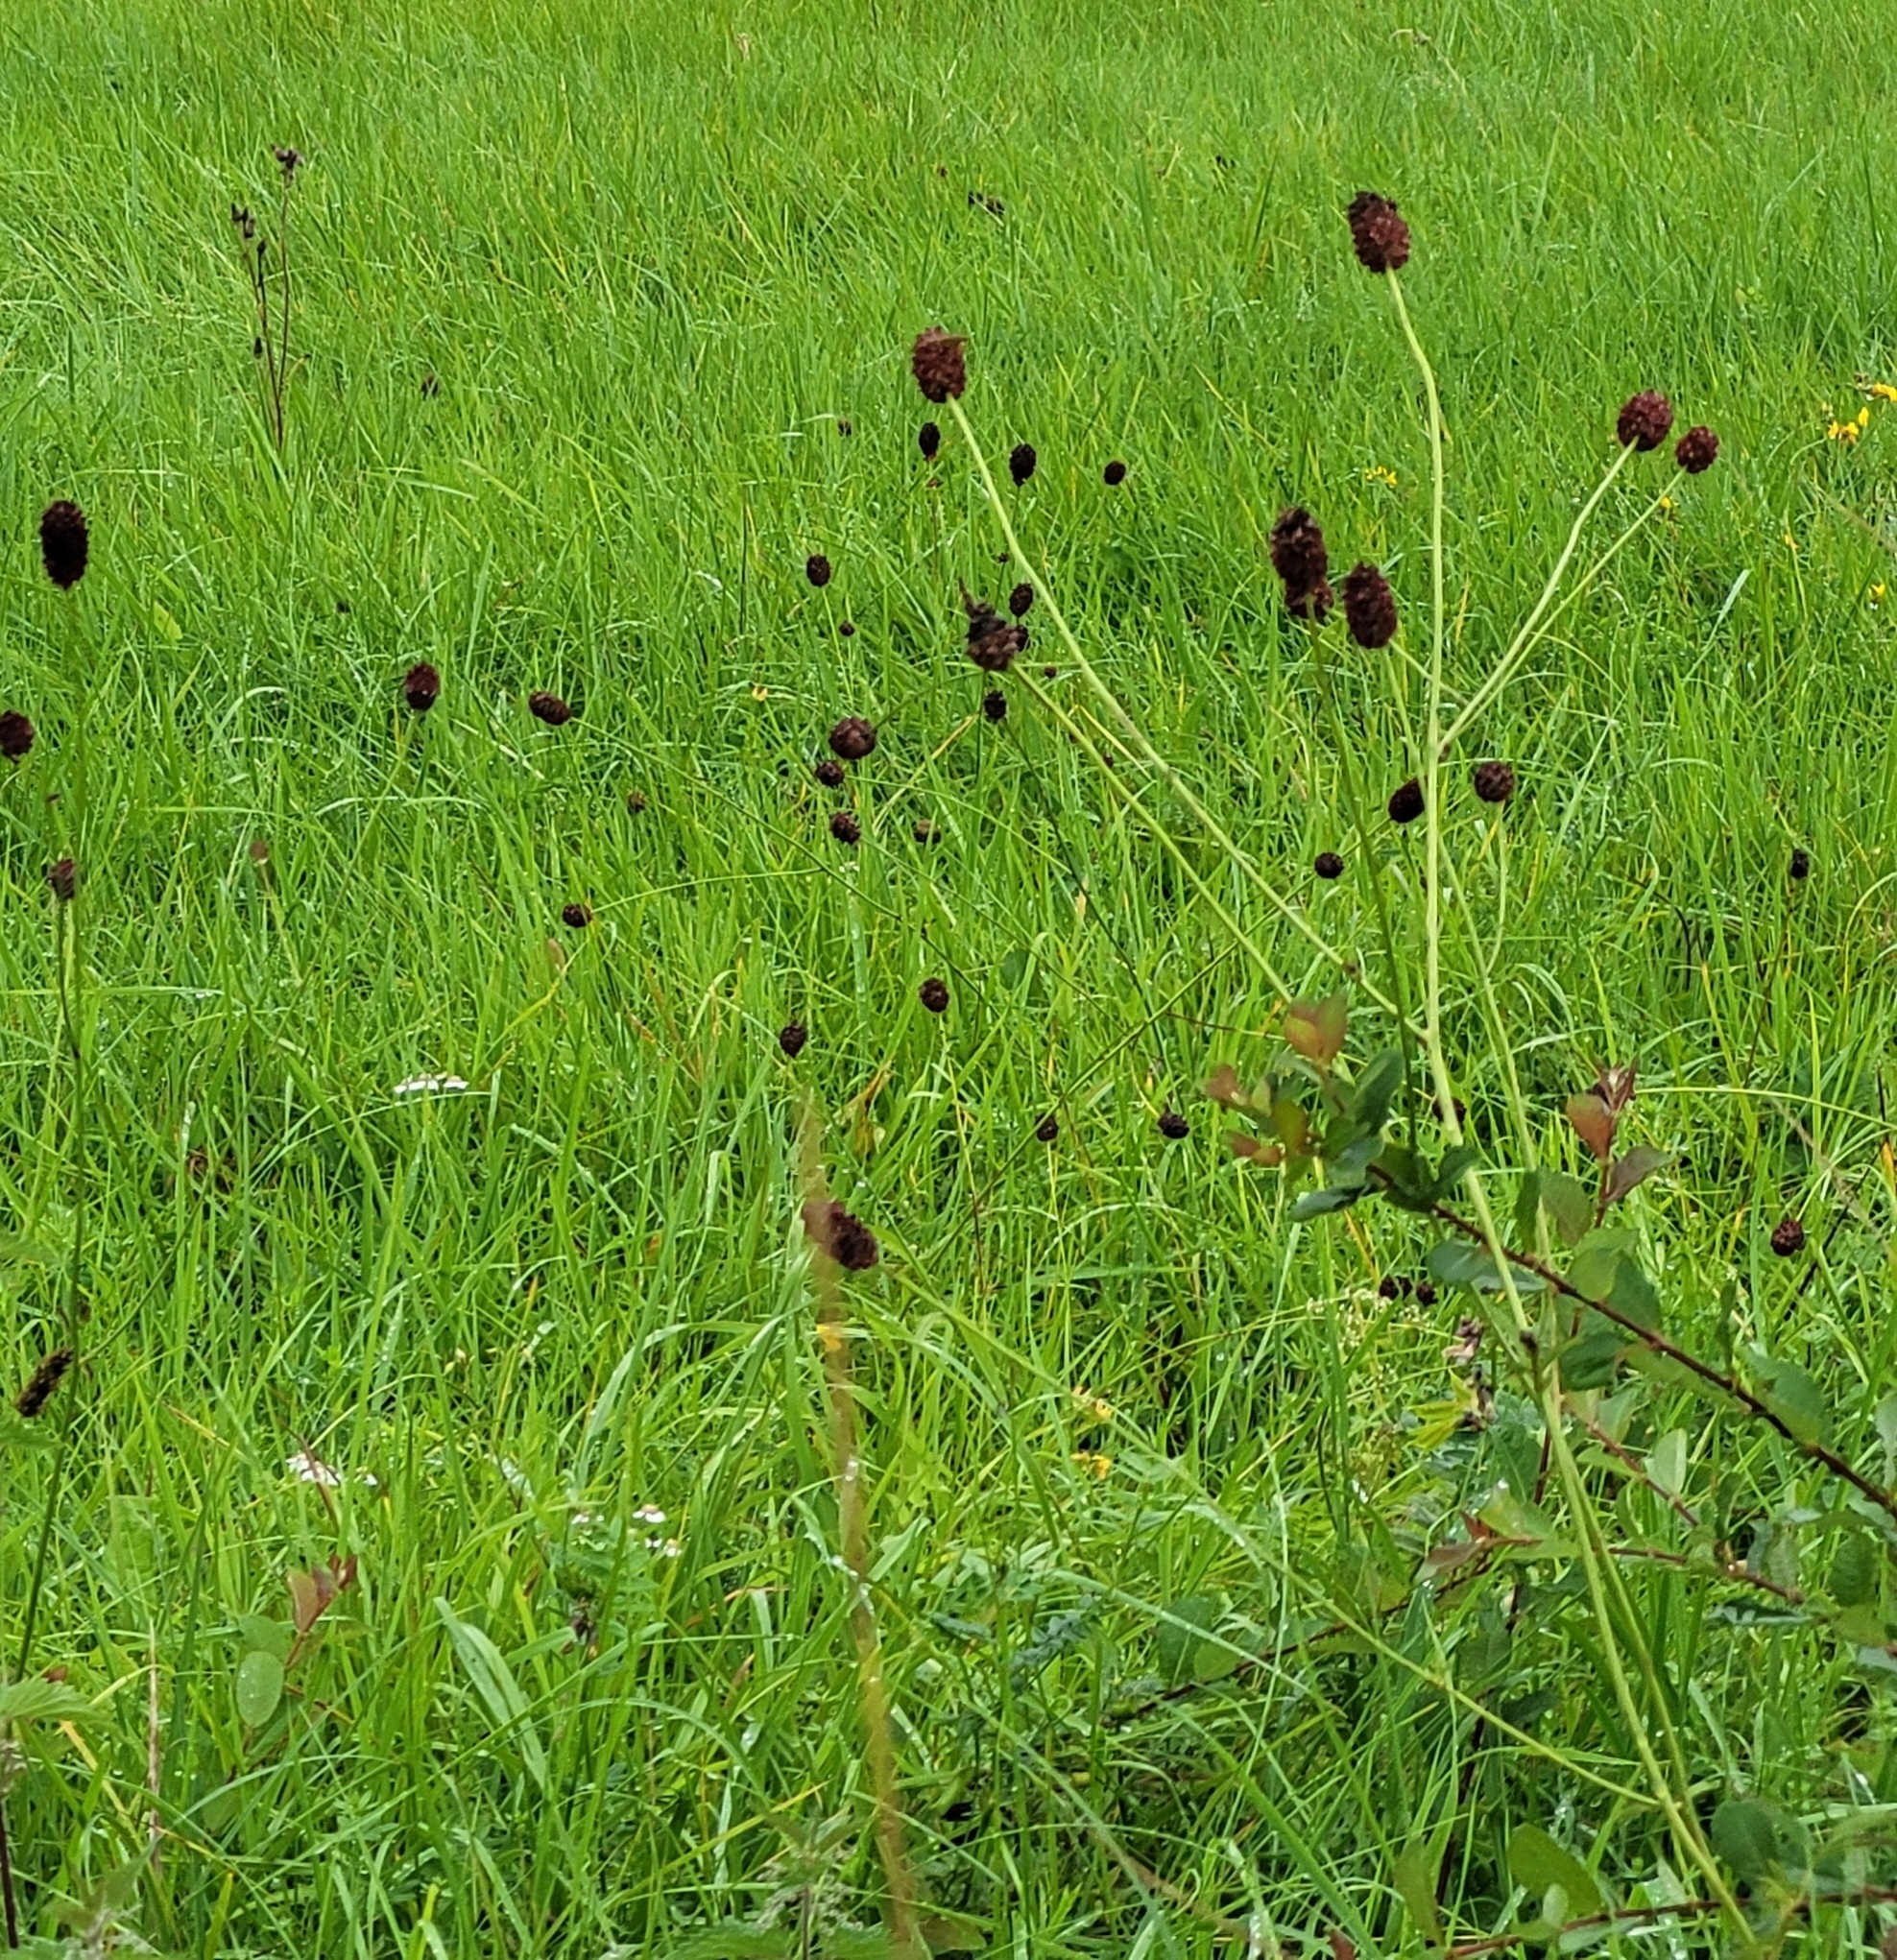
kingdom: Plantae
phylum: Tracheophyta
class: Magnoliopsida
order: Rosales
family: Rosaceae
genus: Sanguisorba
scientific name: Sanguisorba officinalis
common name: Great burnet
